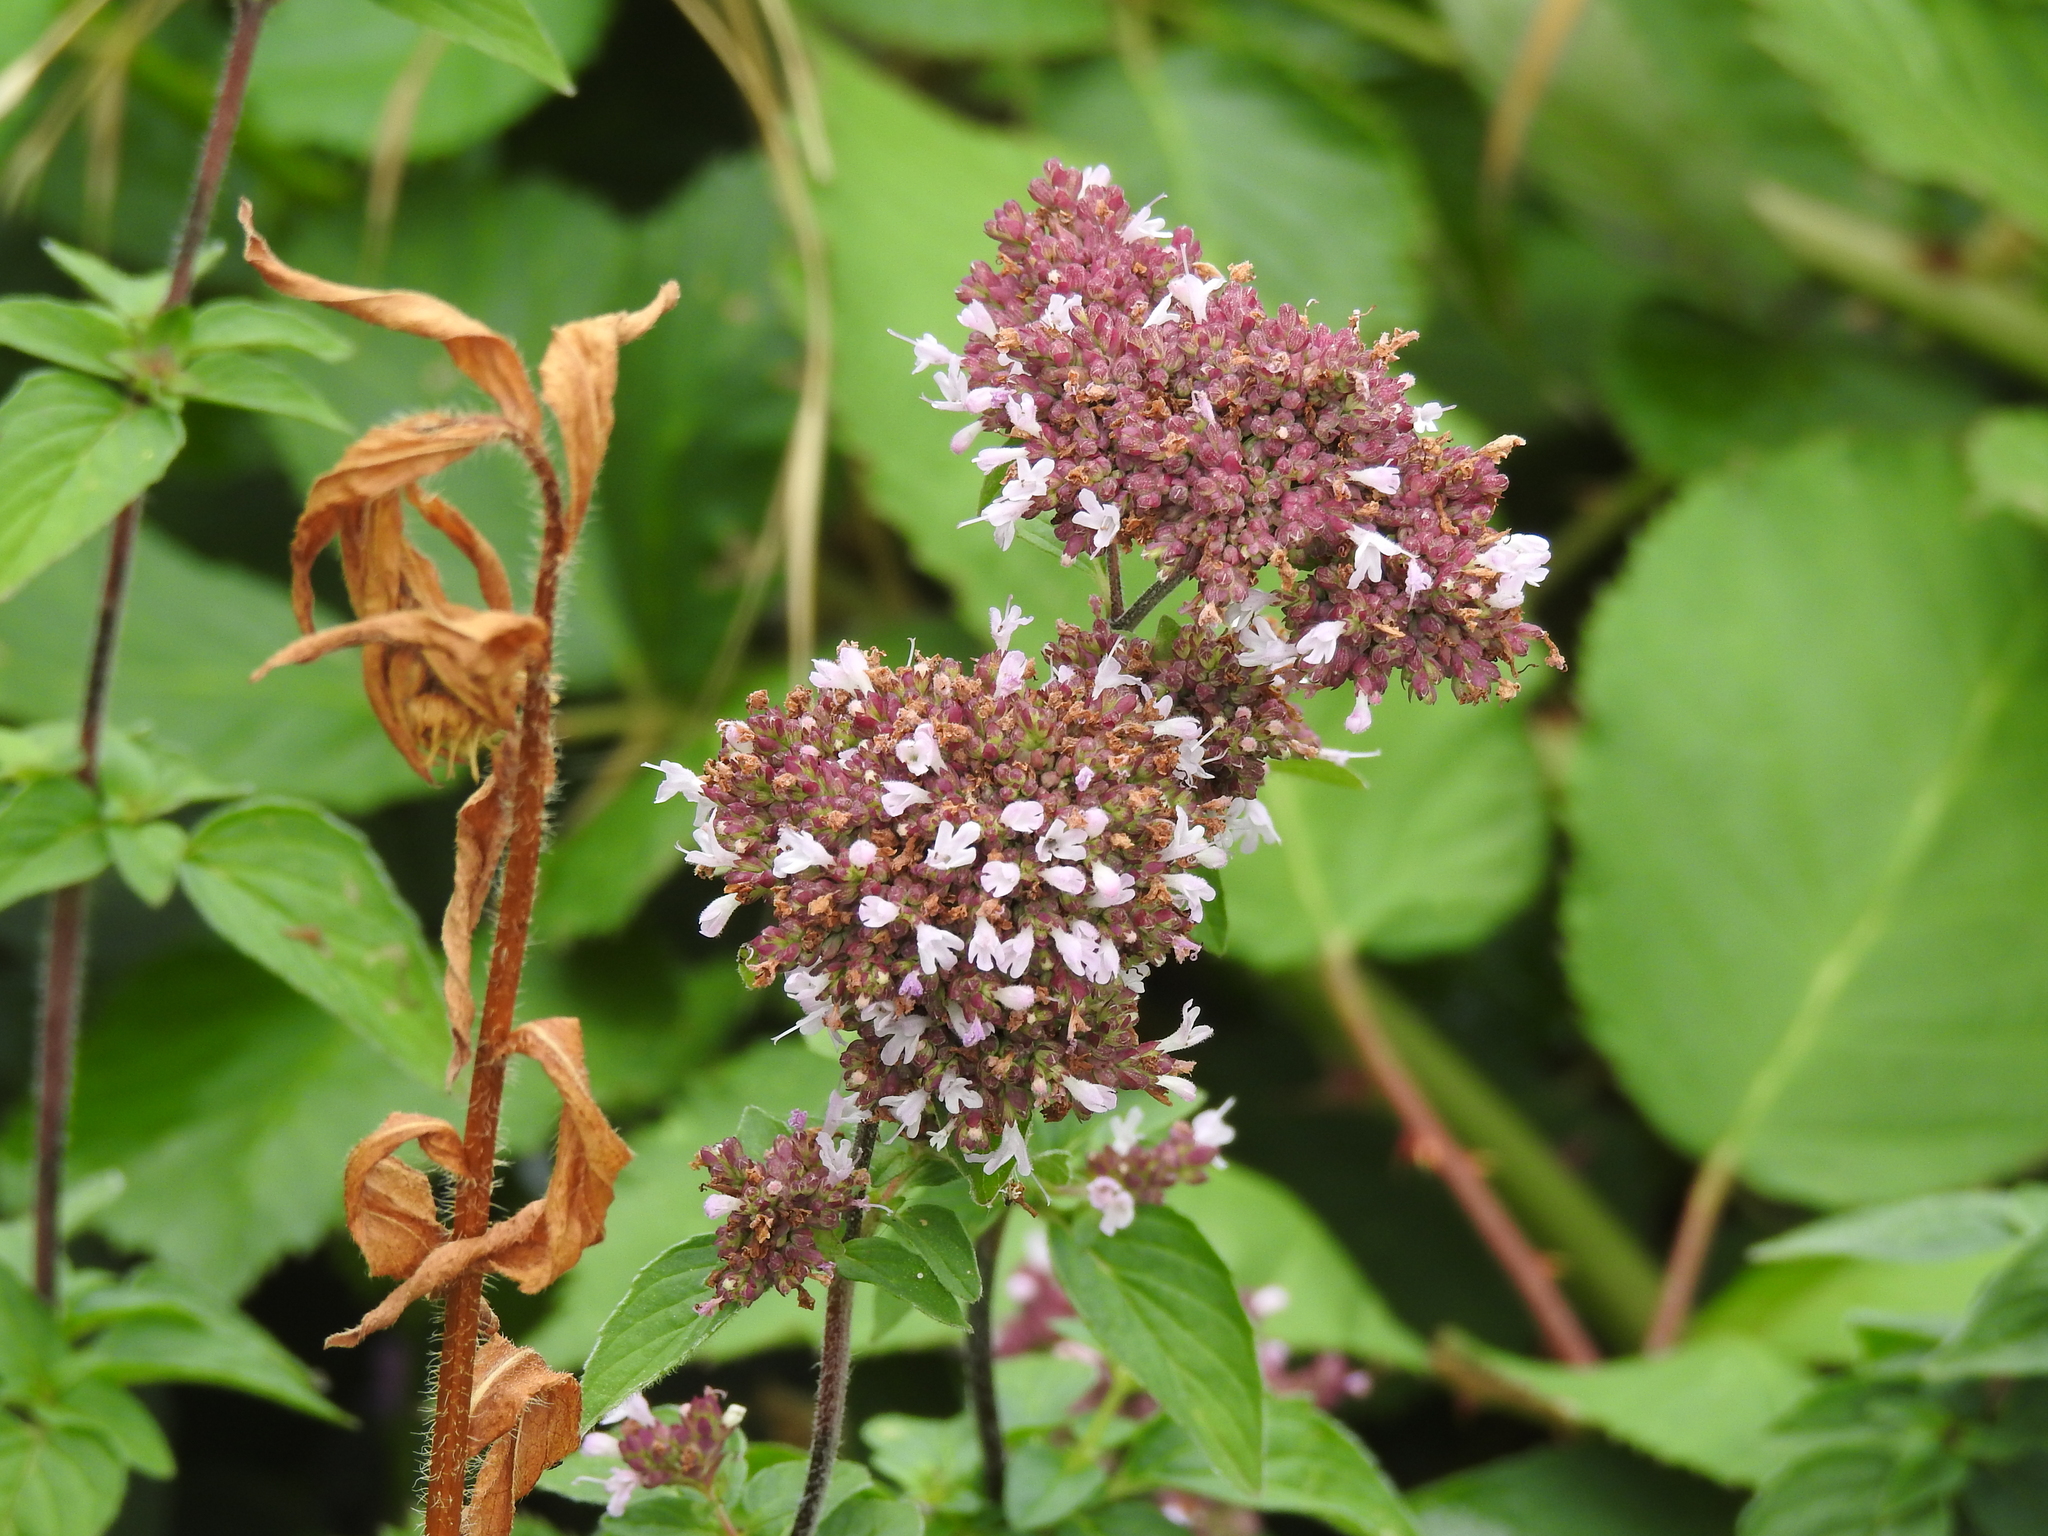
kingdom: Plantae
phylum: Tracheophyta
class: Magnoliopsida
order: Lamiales
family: Lamiaceae
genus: Origanum
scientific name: Origanum vulgare
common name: Wild marjoram
